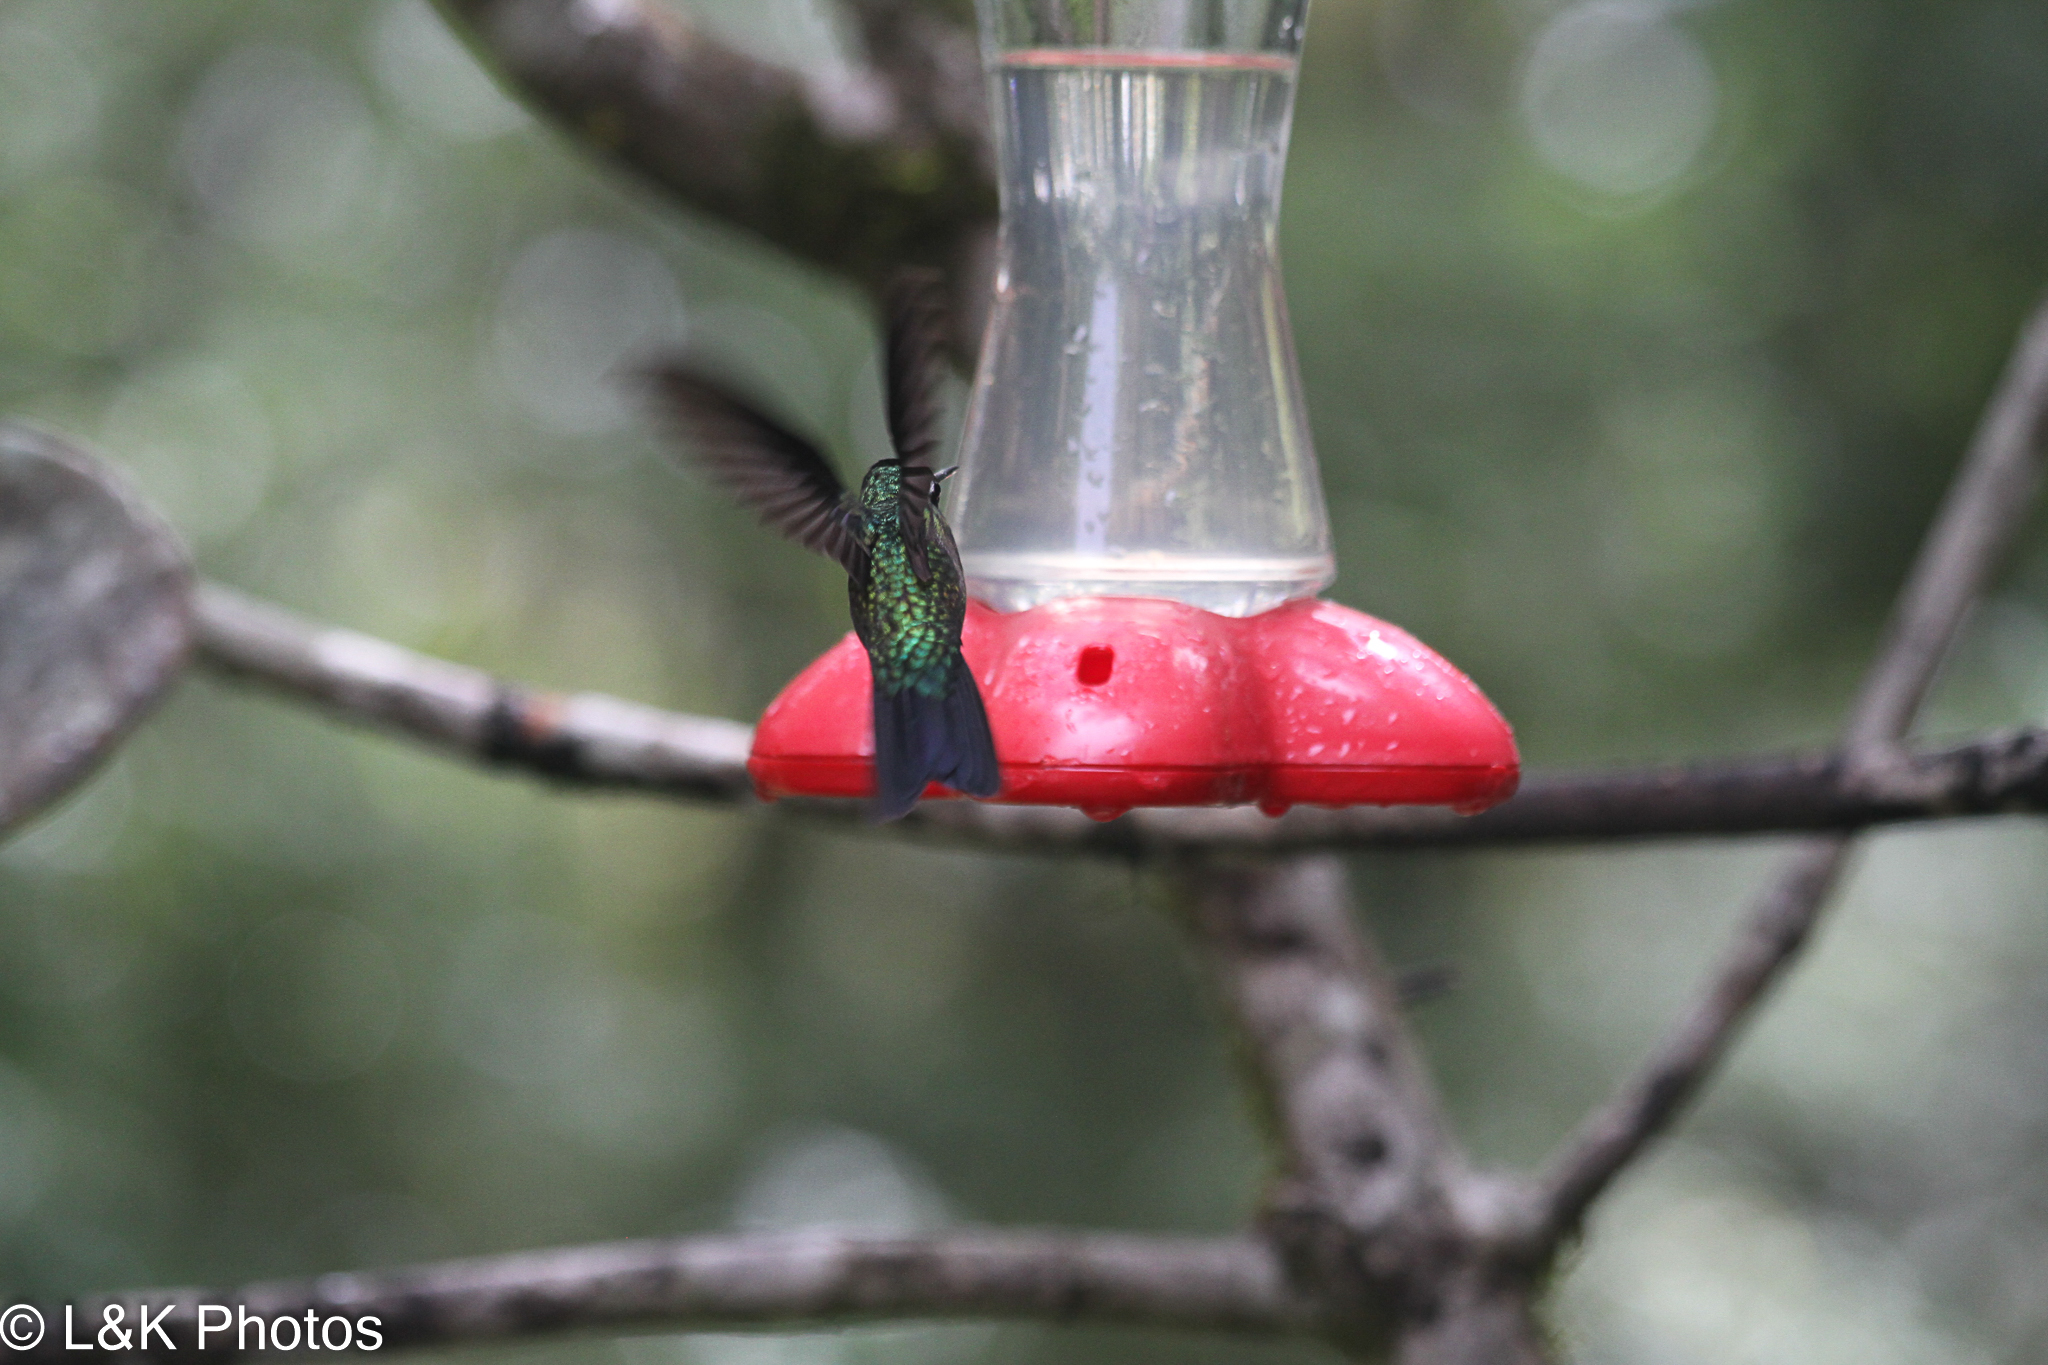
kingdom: Animalia
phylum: Chordata
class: Aves
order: Apodiformes
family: Trochilidae
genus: Lampornis
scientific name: Lampornis calolaemus
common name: Purple-throated mountain-gem
